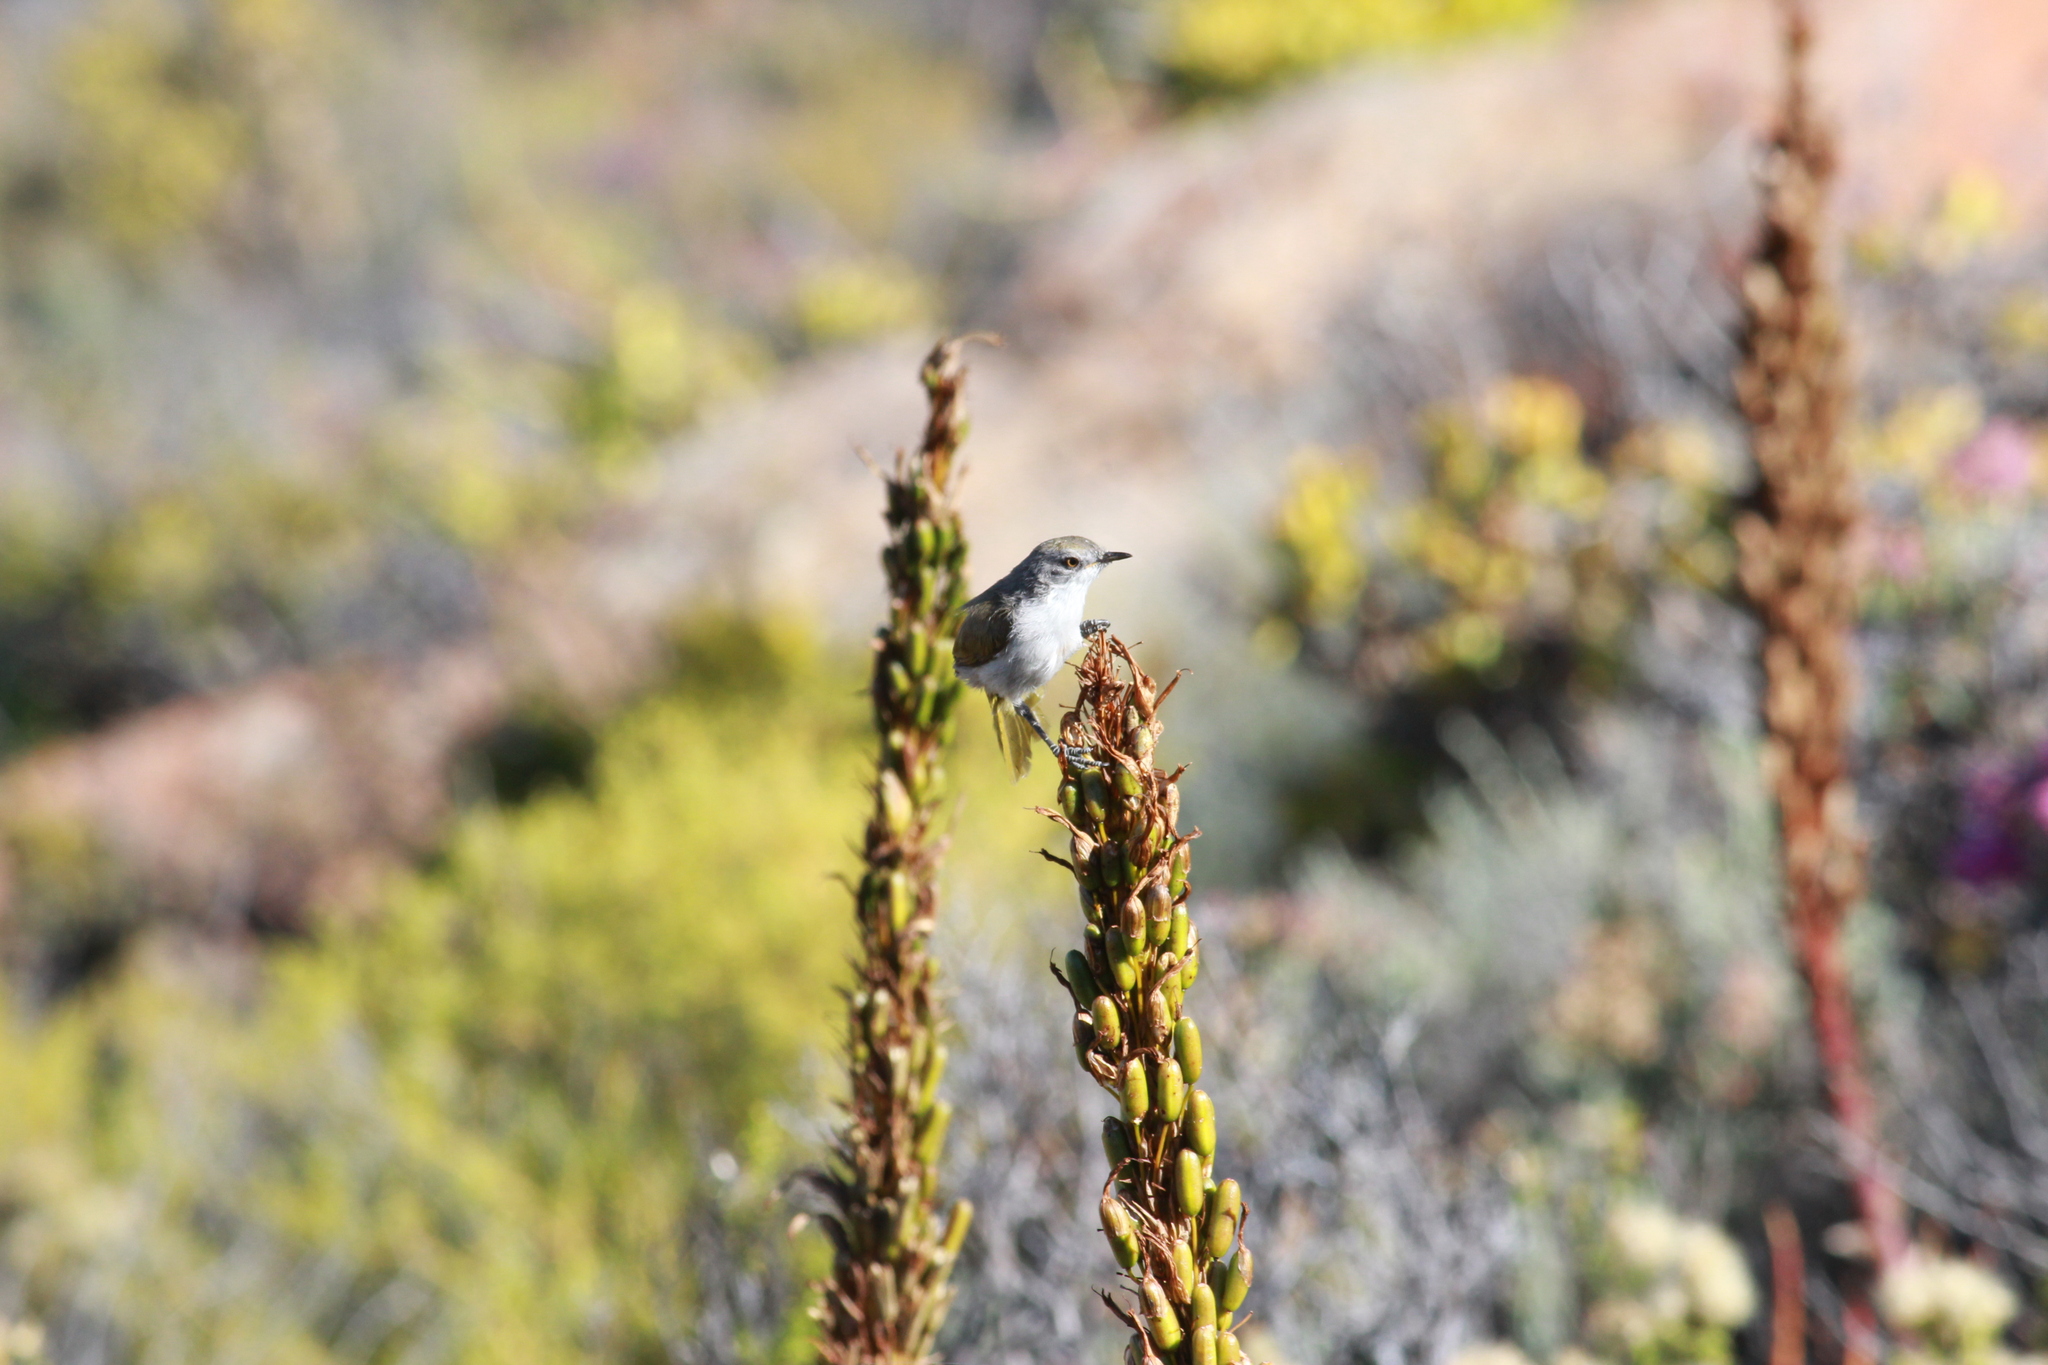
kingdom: Animalia
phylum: Chordata
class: Aves
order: Passeriformes
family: Cisticolidae
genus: Eremomela
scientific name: Eremomela gregalis
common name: Karoo eremomela
